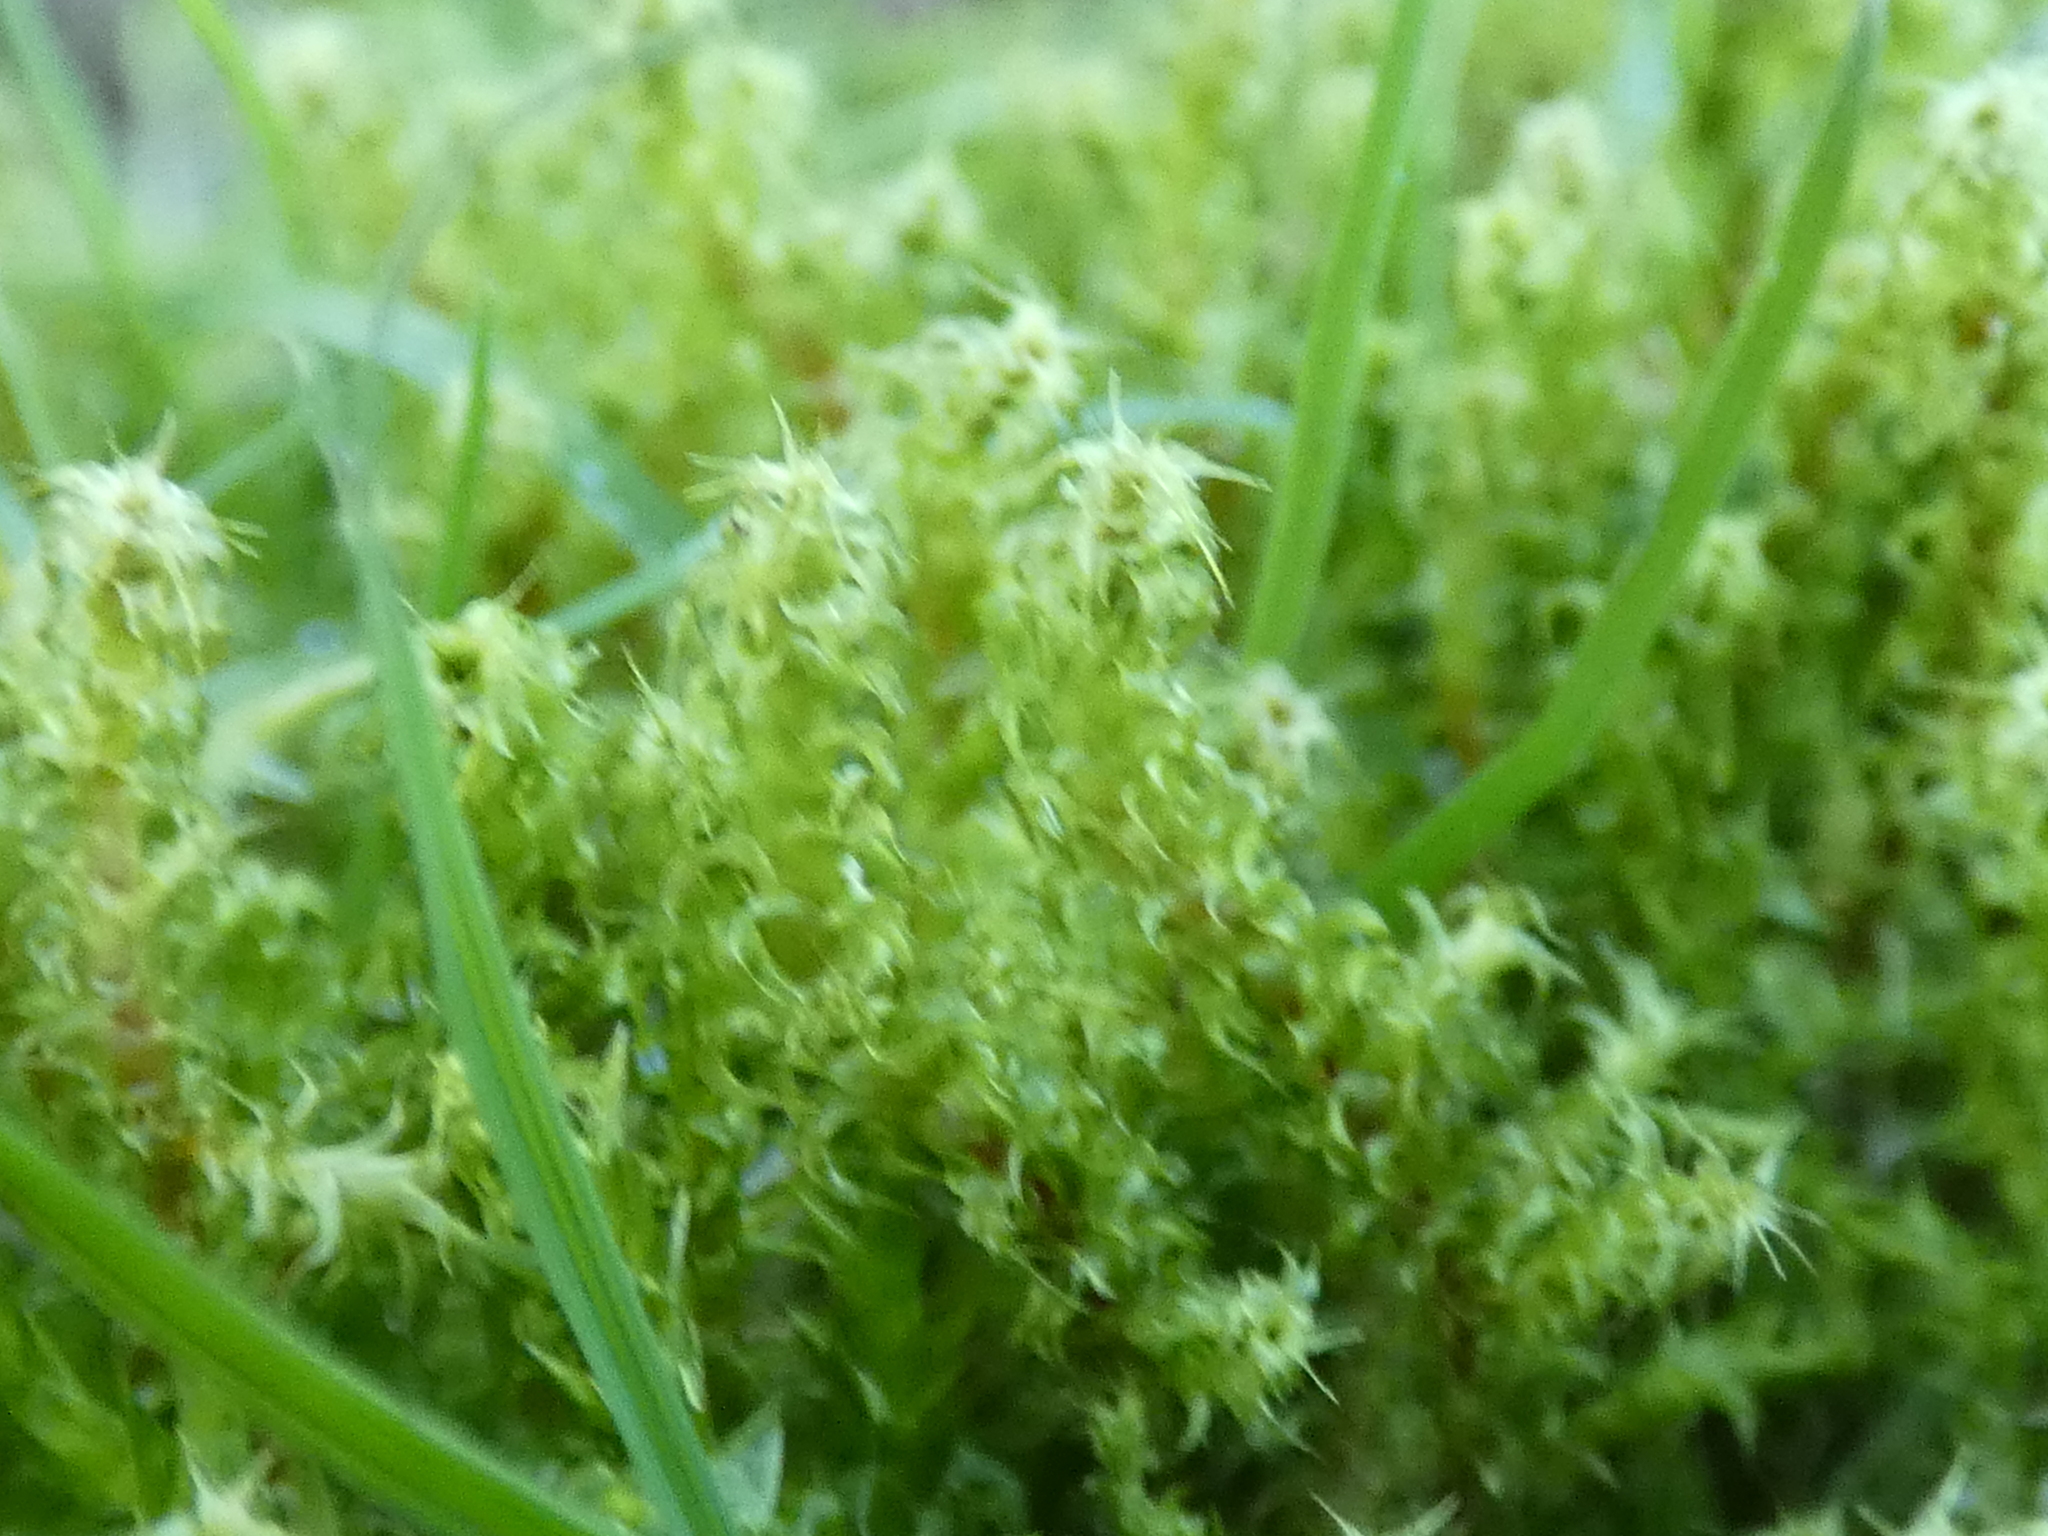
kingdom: Plantae
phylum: Bryophyta
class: Bryopsida
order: Hypnales
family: Hylocomiaceae
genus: Rhytidiadelphus
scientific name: Rhytidiadelphus squarrosus
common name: Springy turf-moss
